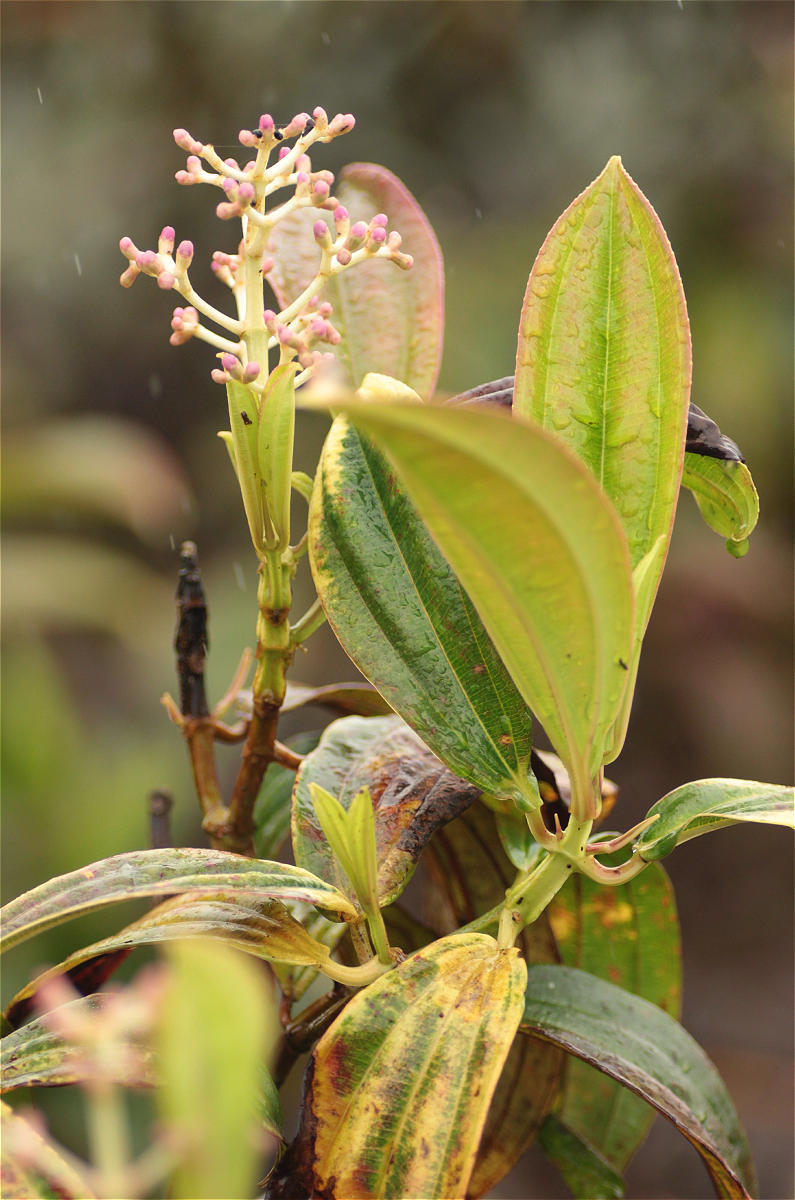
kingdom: Plantae
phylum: Tracheophyta
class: Magnoliopsida
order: Myrtales
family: Melastomataceae
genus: Miconia
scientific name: Miconia robinsoniana
